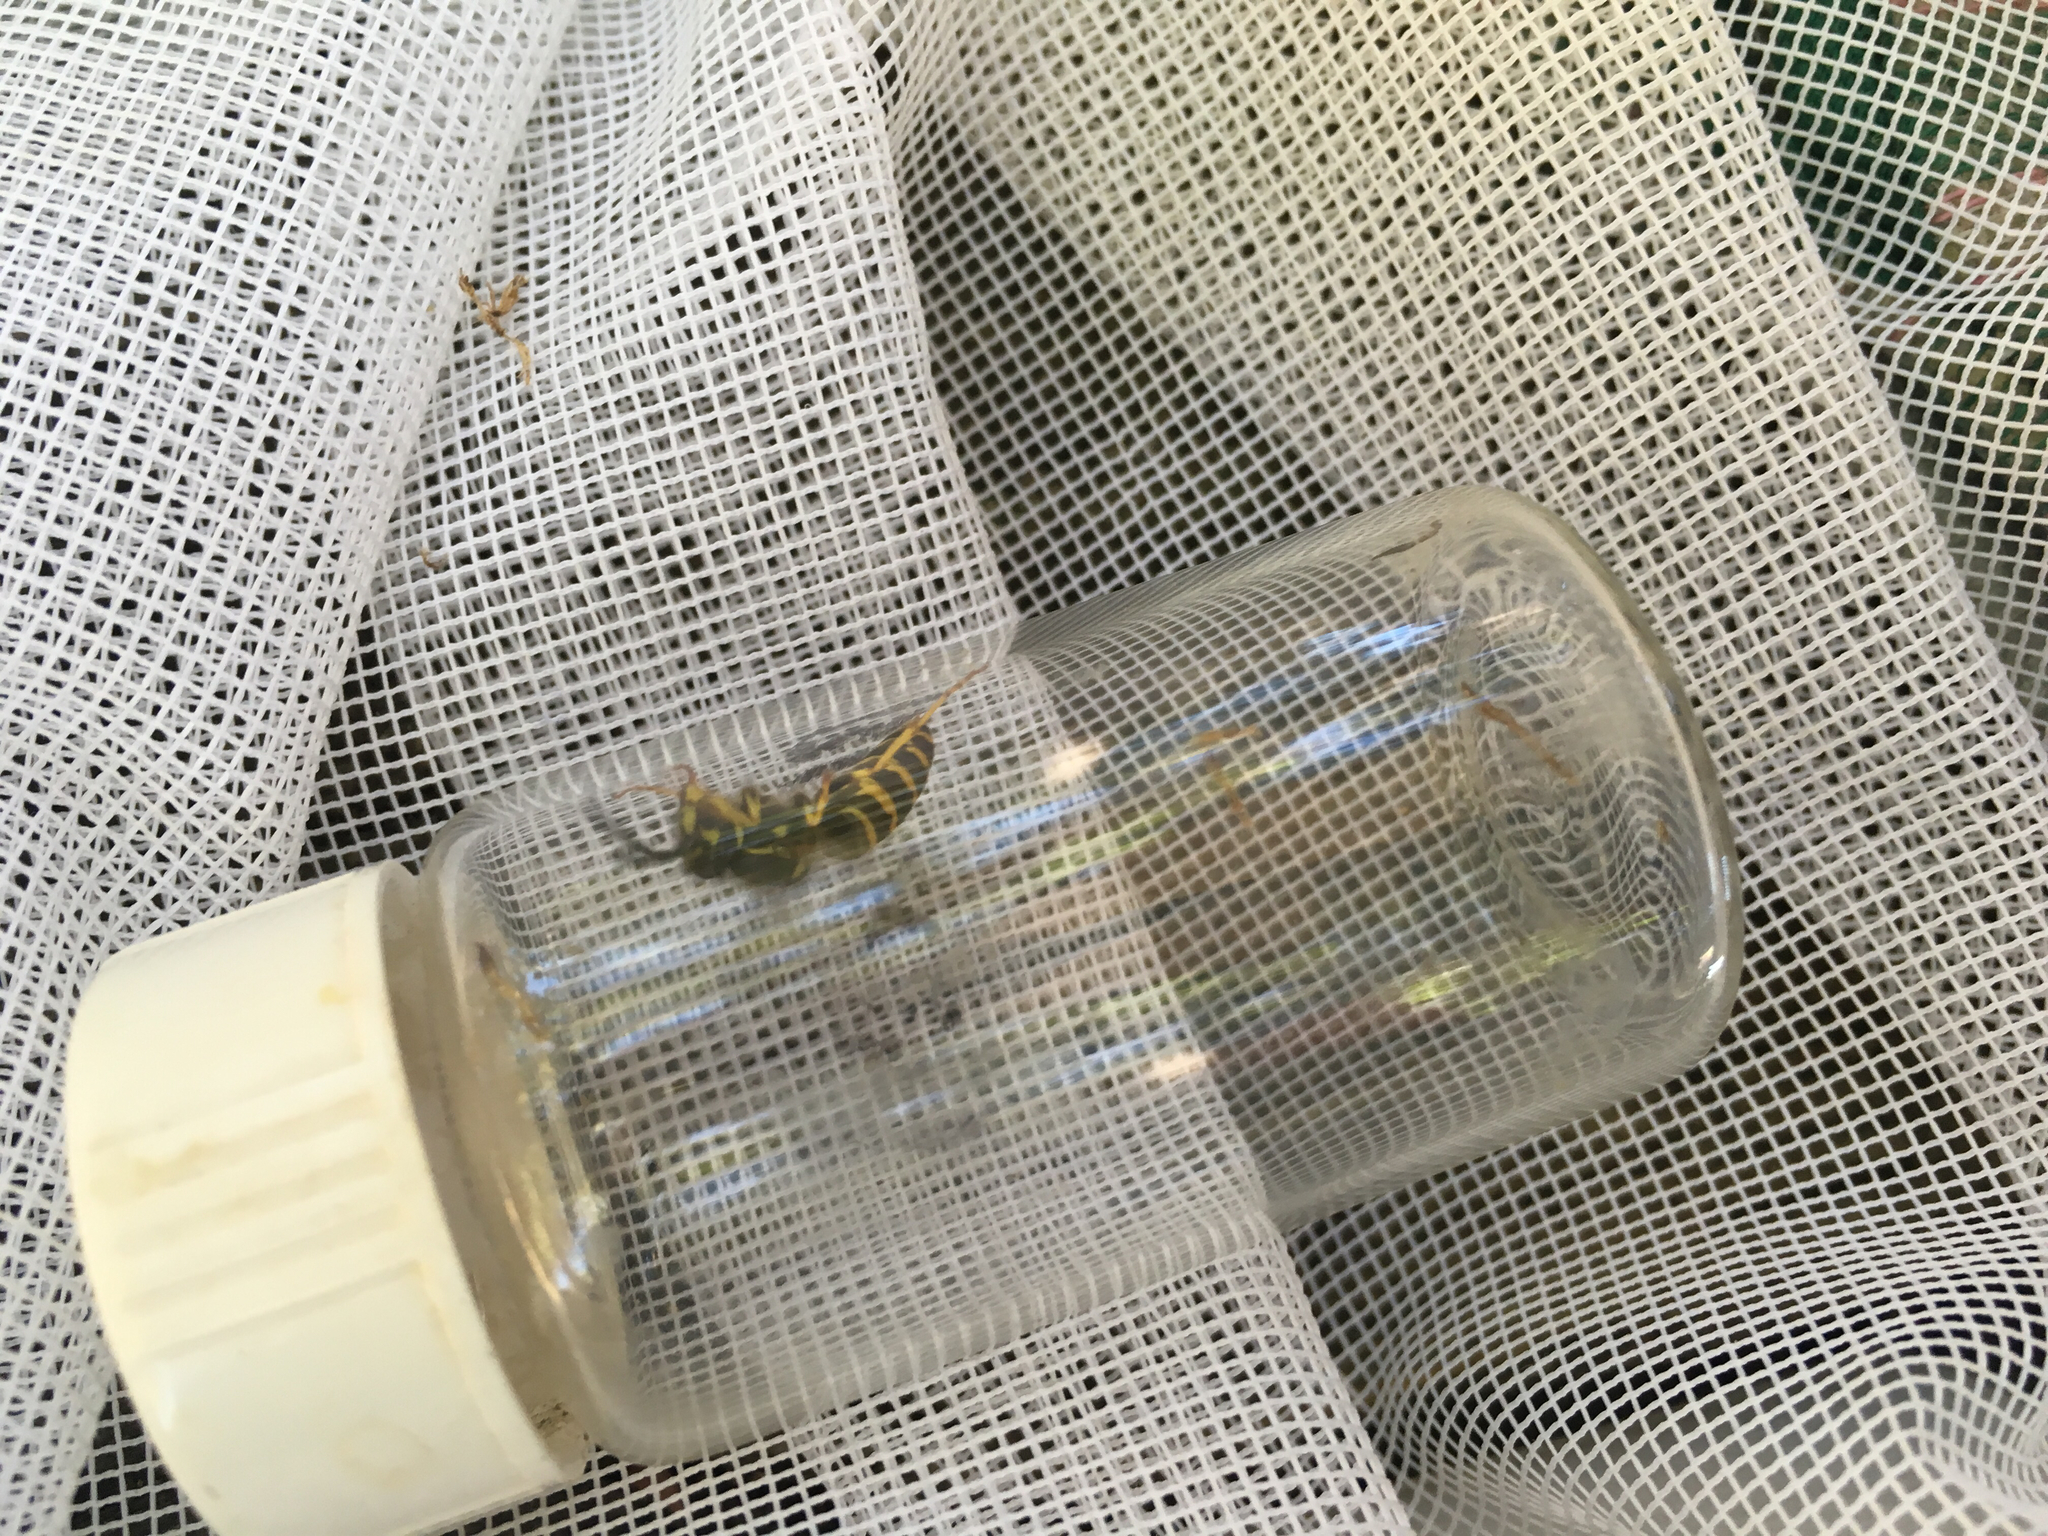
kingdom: Animalia
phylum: Arthropoda
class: Insecta
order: Hymenoptera
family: Vespidae
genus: Vespula
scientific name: Vespula alascensis
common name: Alaska yellowjacket
